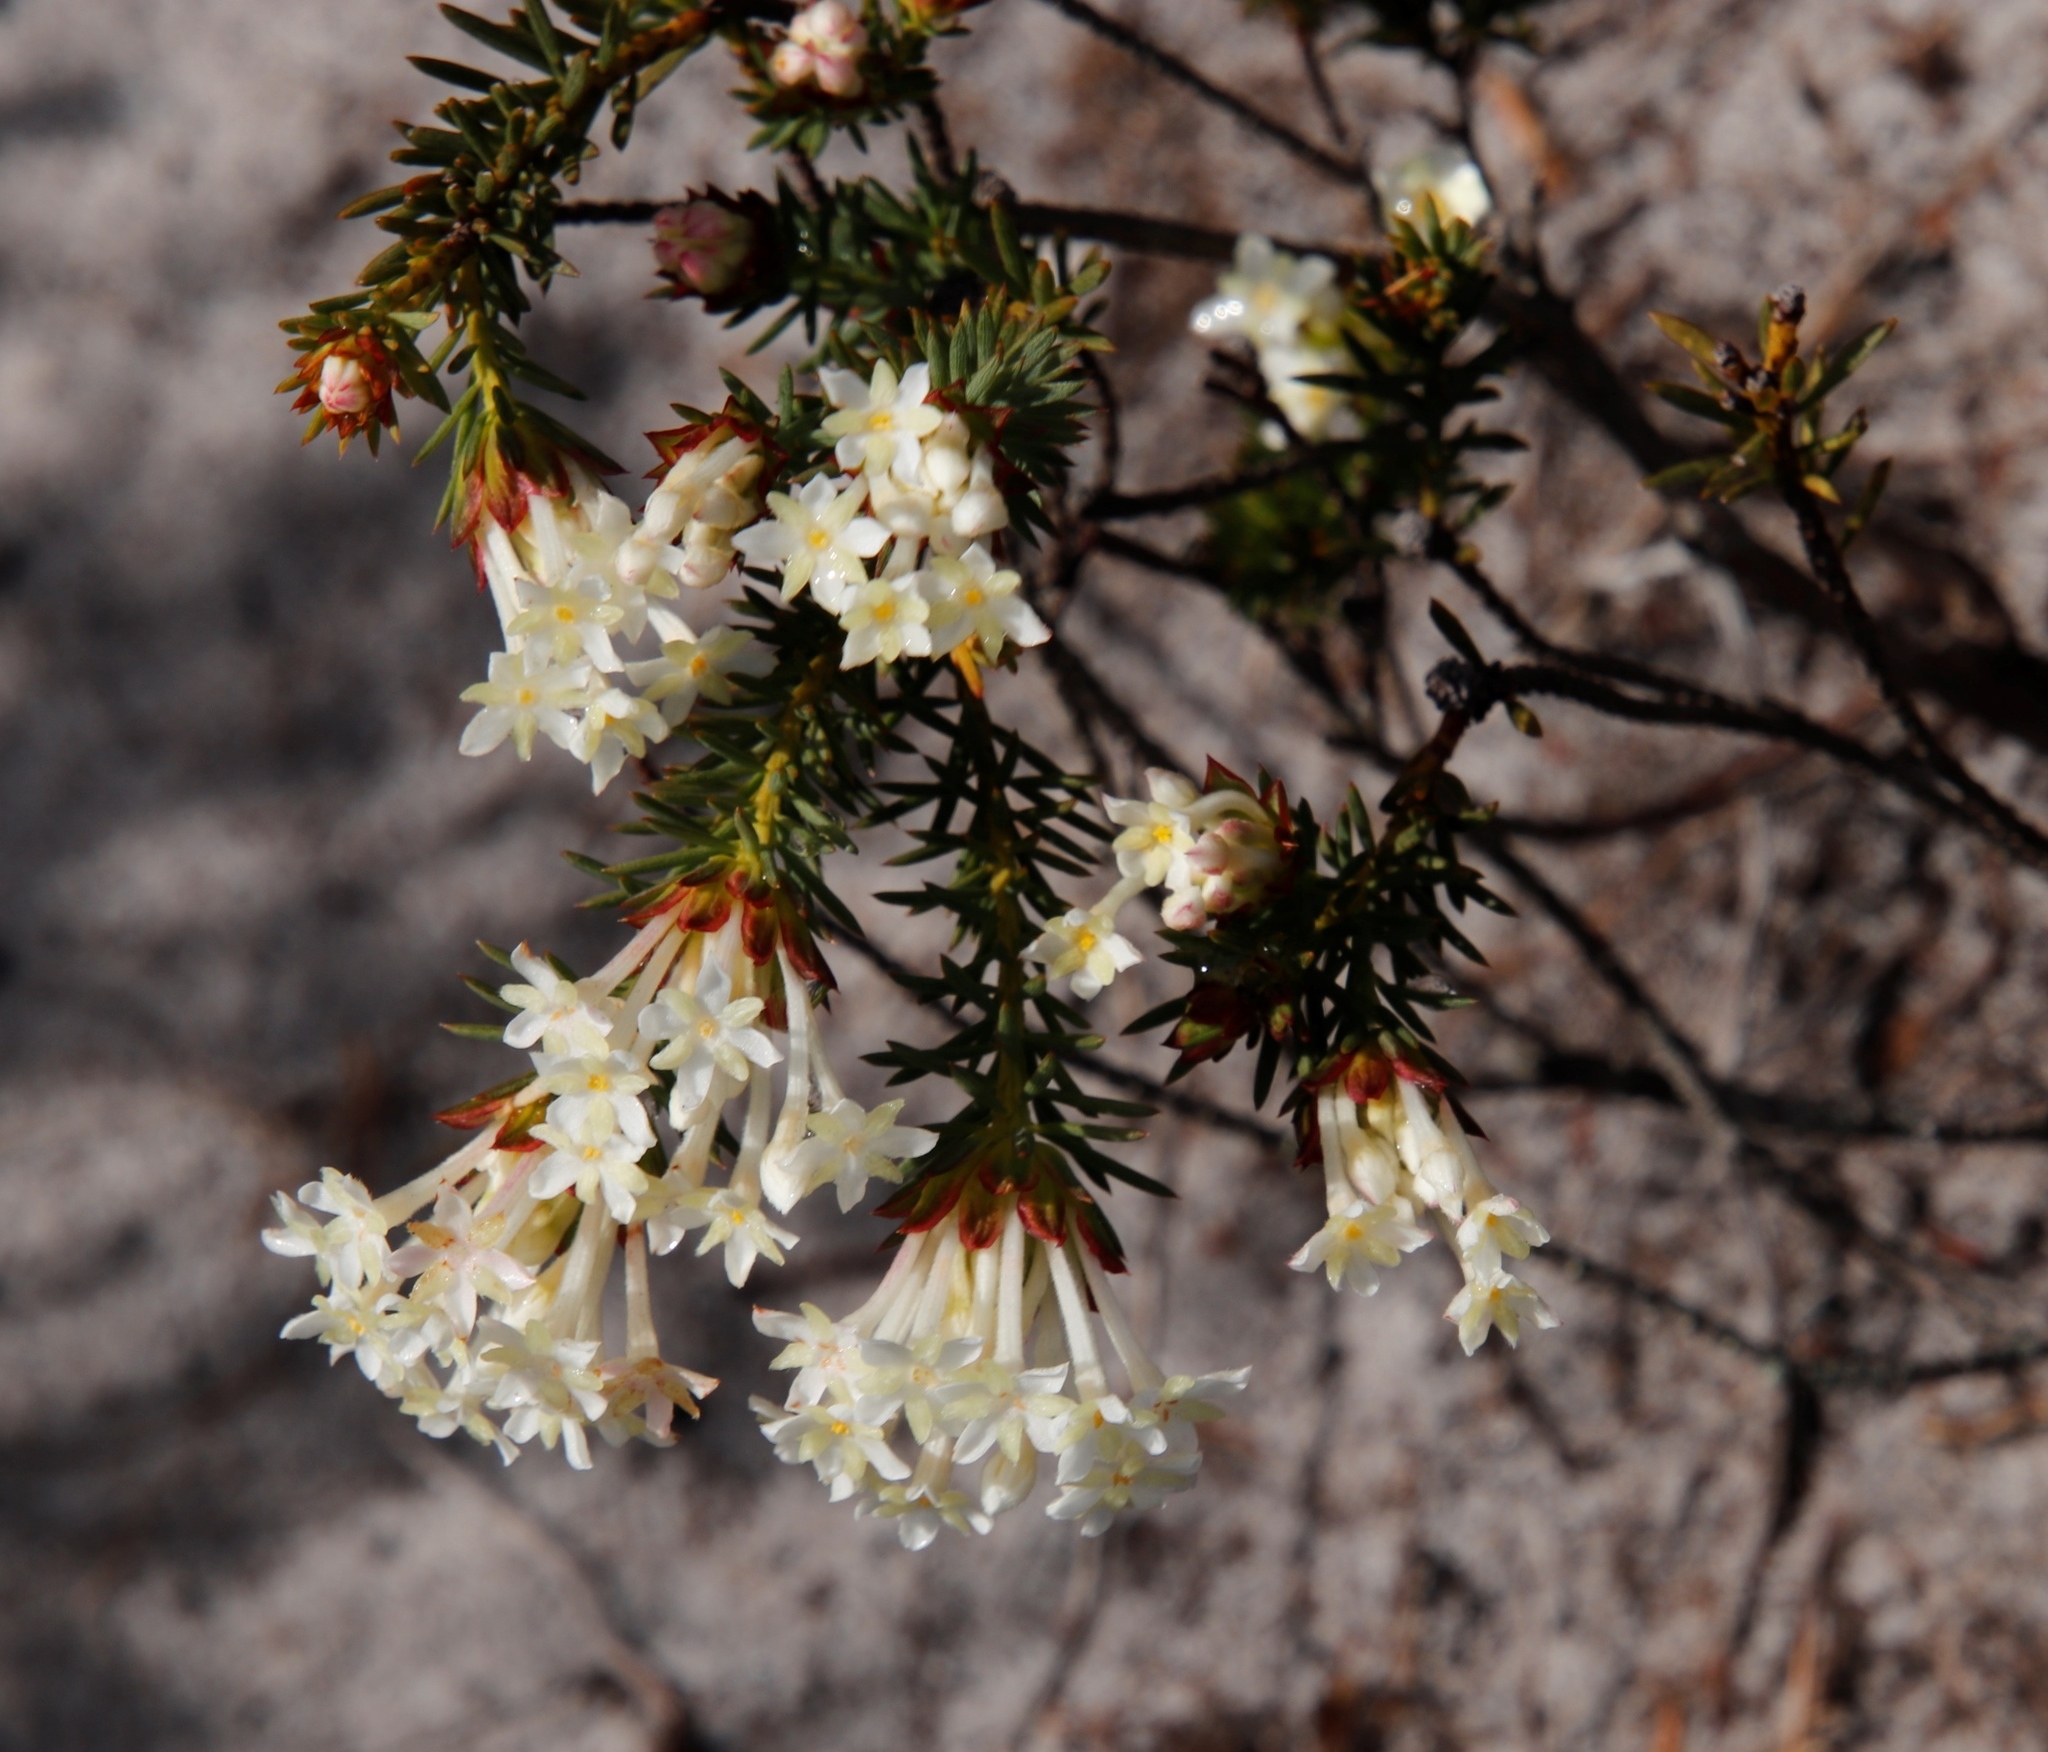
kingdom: Plantae
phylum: Tracheophyta
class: Magnoliopsida
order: Malvales
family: Thymelaeaceae
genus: Gnidia
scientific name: Gnidia pinifolia
